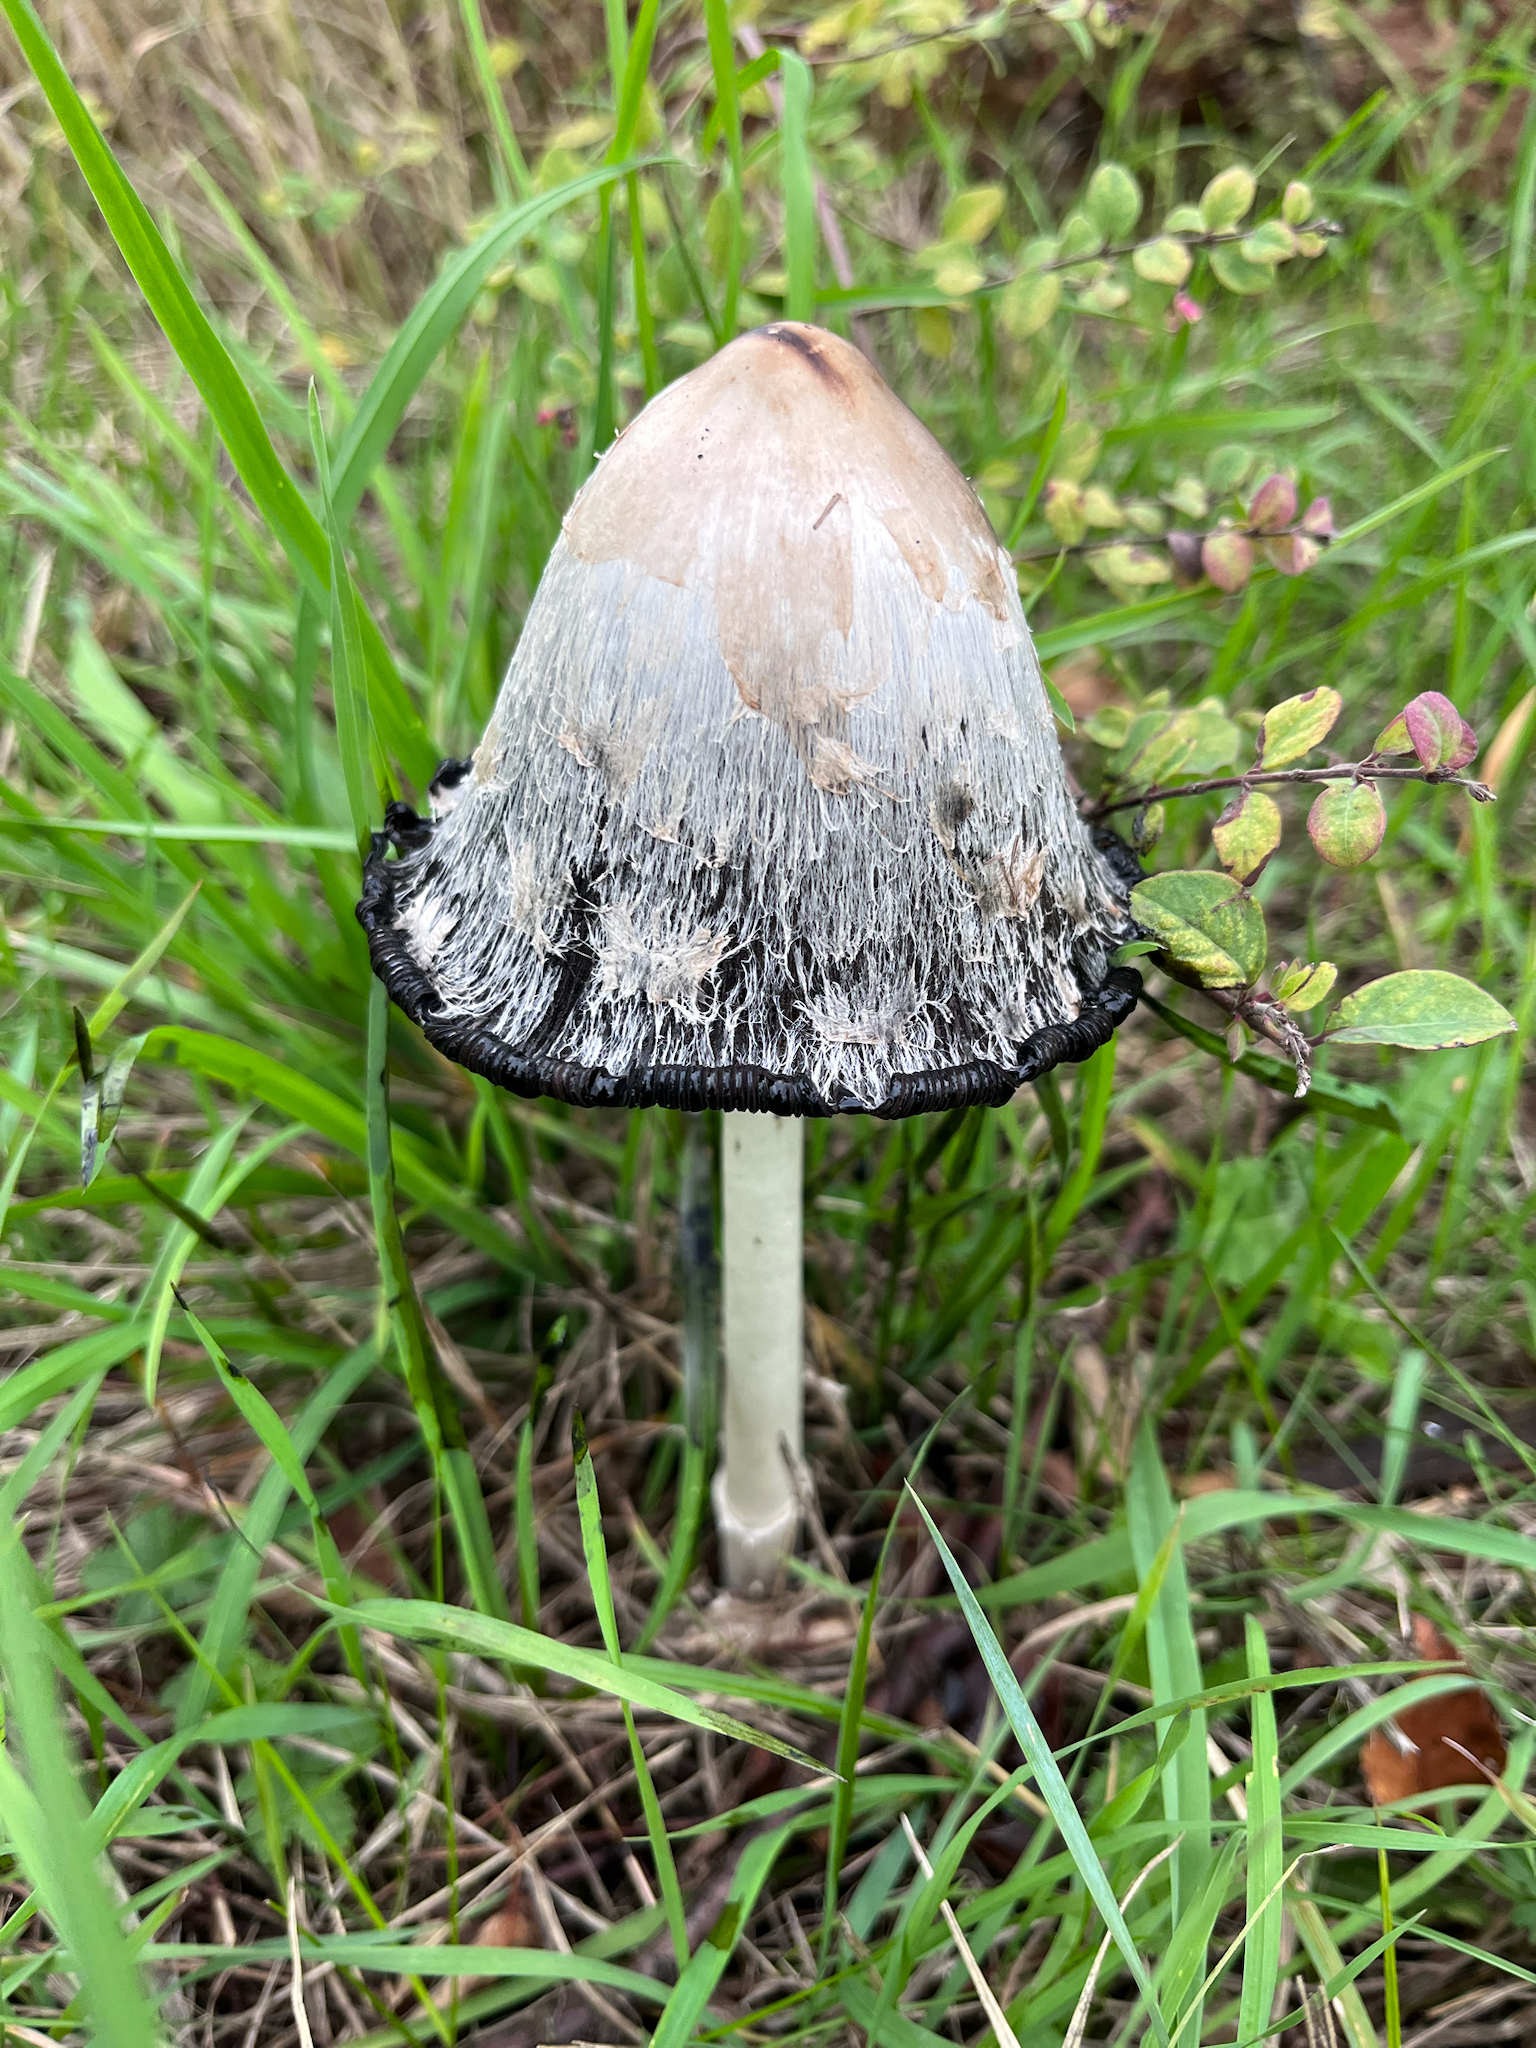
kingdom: Fungi
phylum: Basidiomycota
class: Agaricomycetes
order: Agaricales
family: Agaricaceae
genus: Coprinus
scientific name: Coprinus comatus
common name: Lawyer's wig
